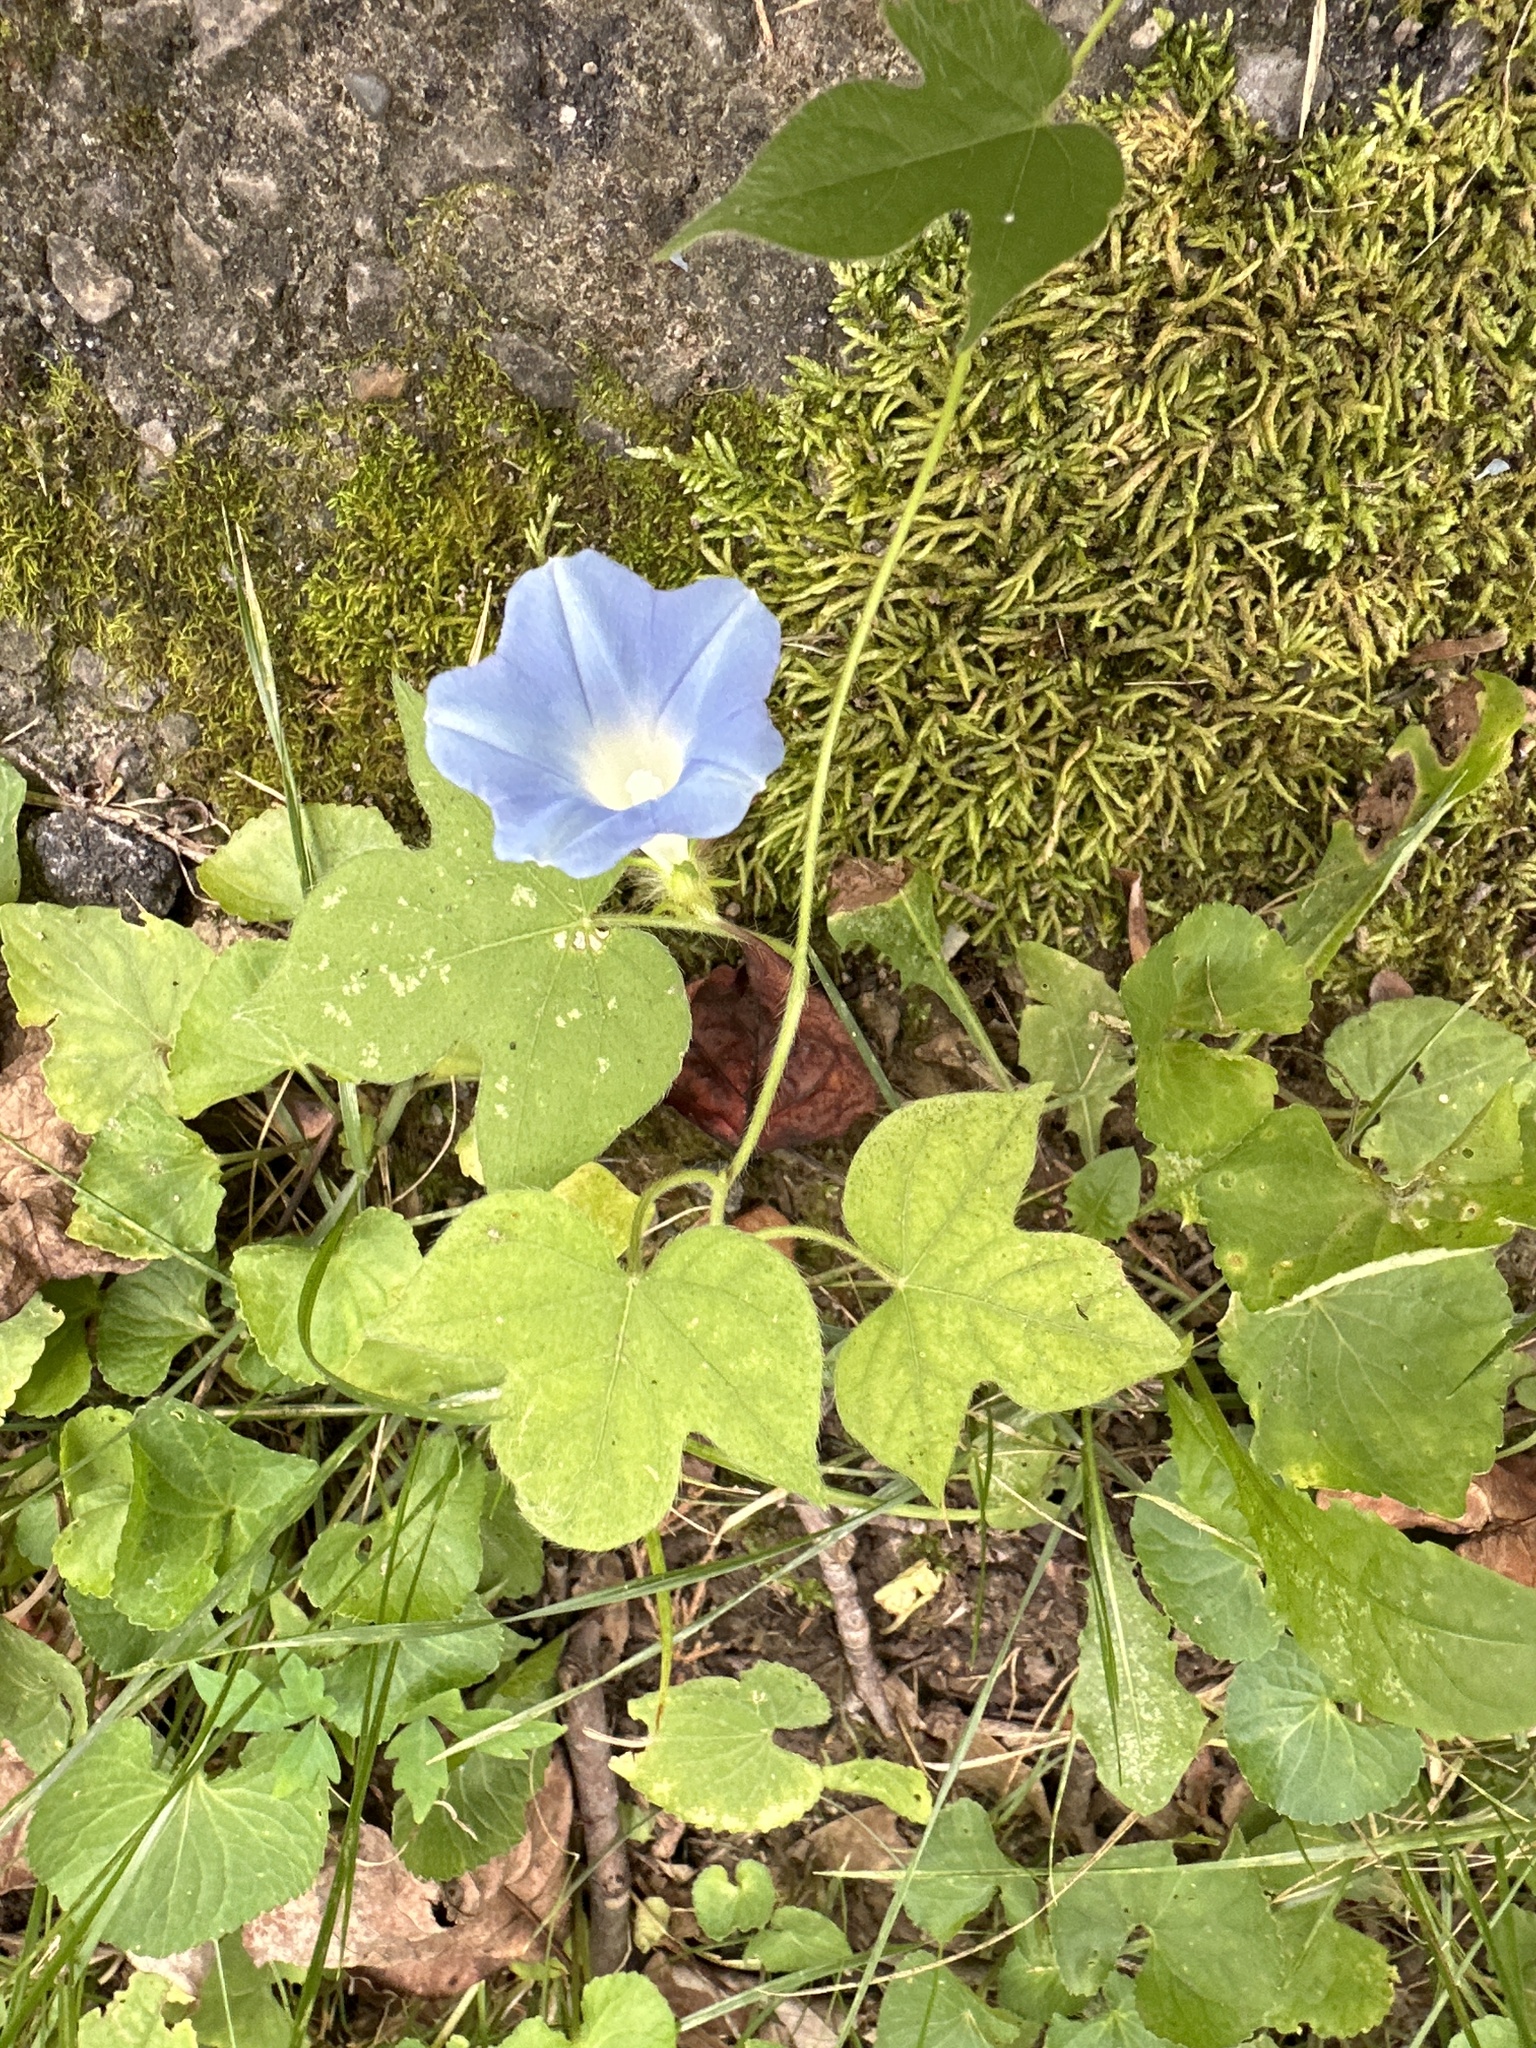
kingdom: Plantae
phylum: Tracheophyta
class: Magnoliopsida
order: Solanales
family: Convolvulaceae
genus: Ipomoea
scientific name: Ipomoea hederacea
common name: Ivy-leaved morning-glory
